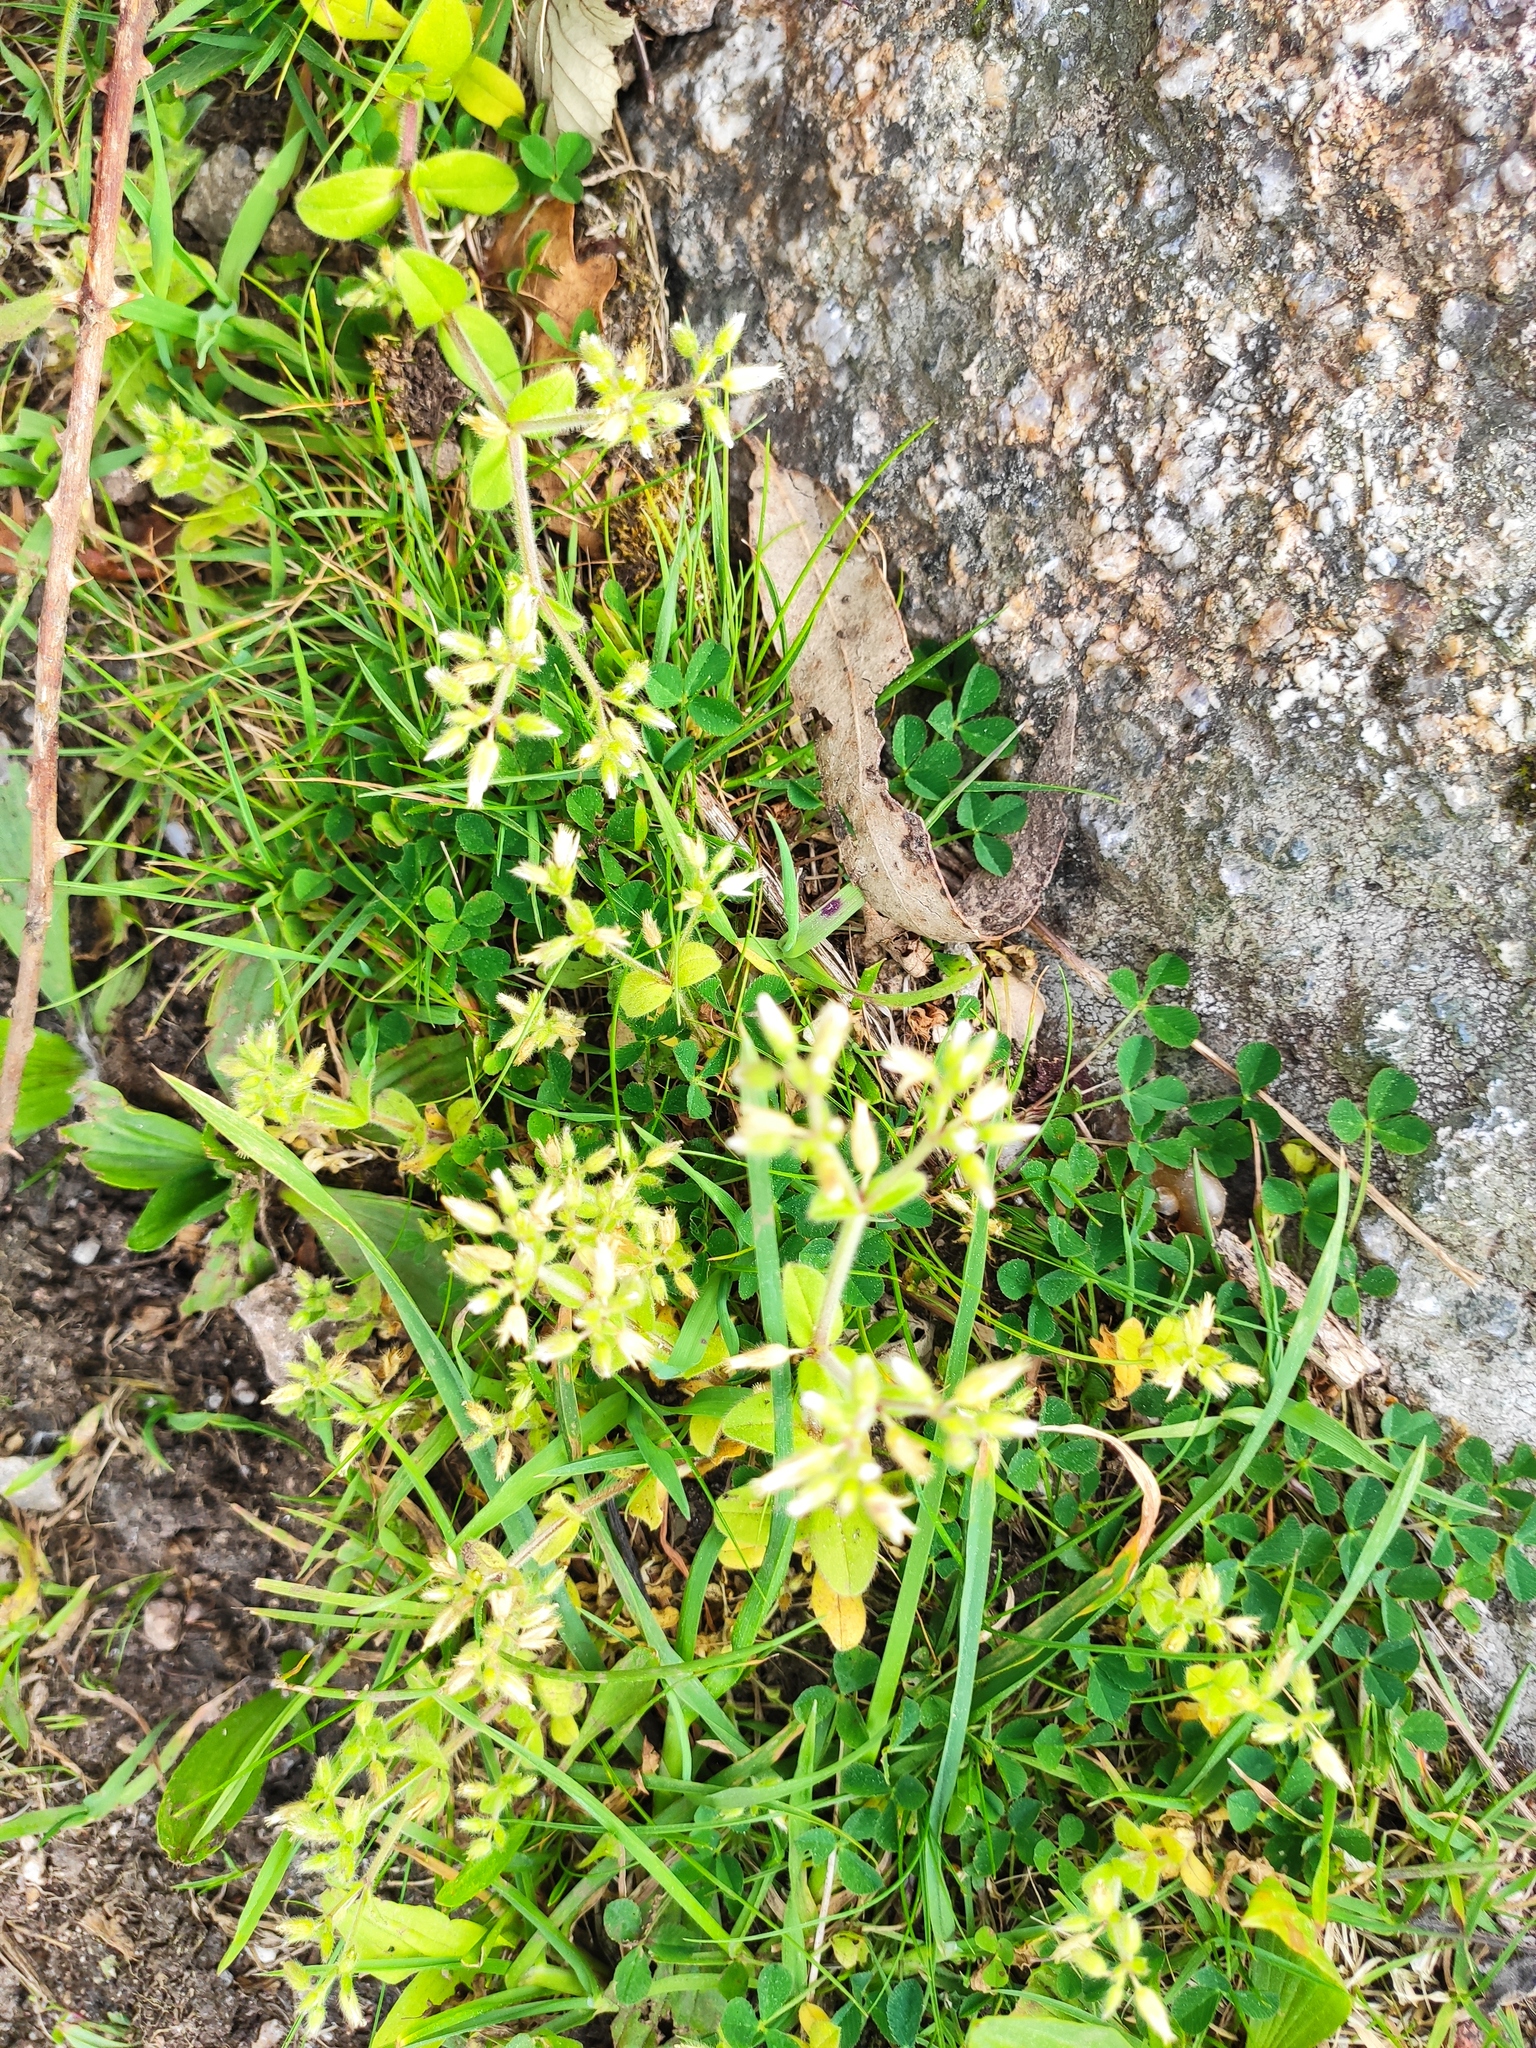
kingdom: Plantae
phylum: Tracheophyta
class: Magnoliopsida
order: Caryophyllales
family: Caryophyllaceae
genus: Cerastium
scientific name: Cerastium glomeratum
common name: Sticky chickweed
